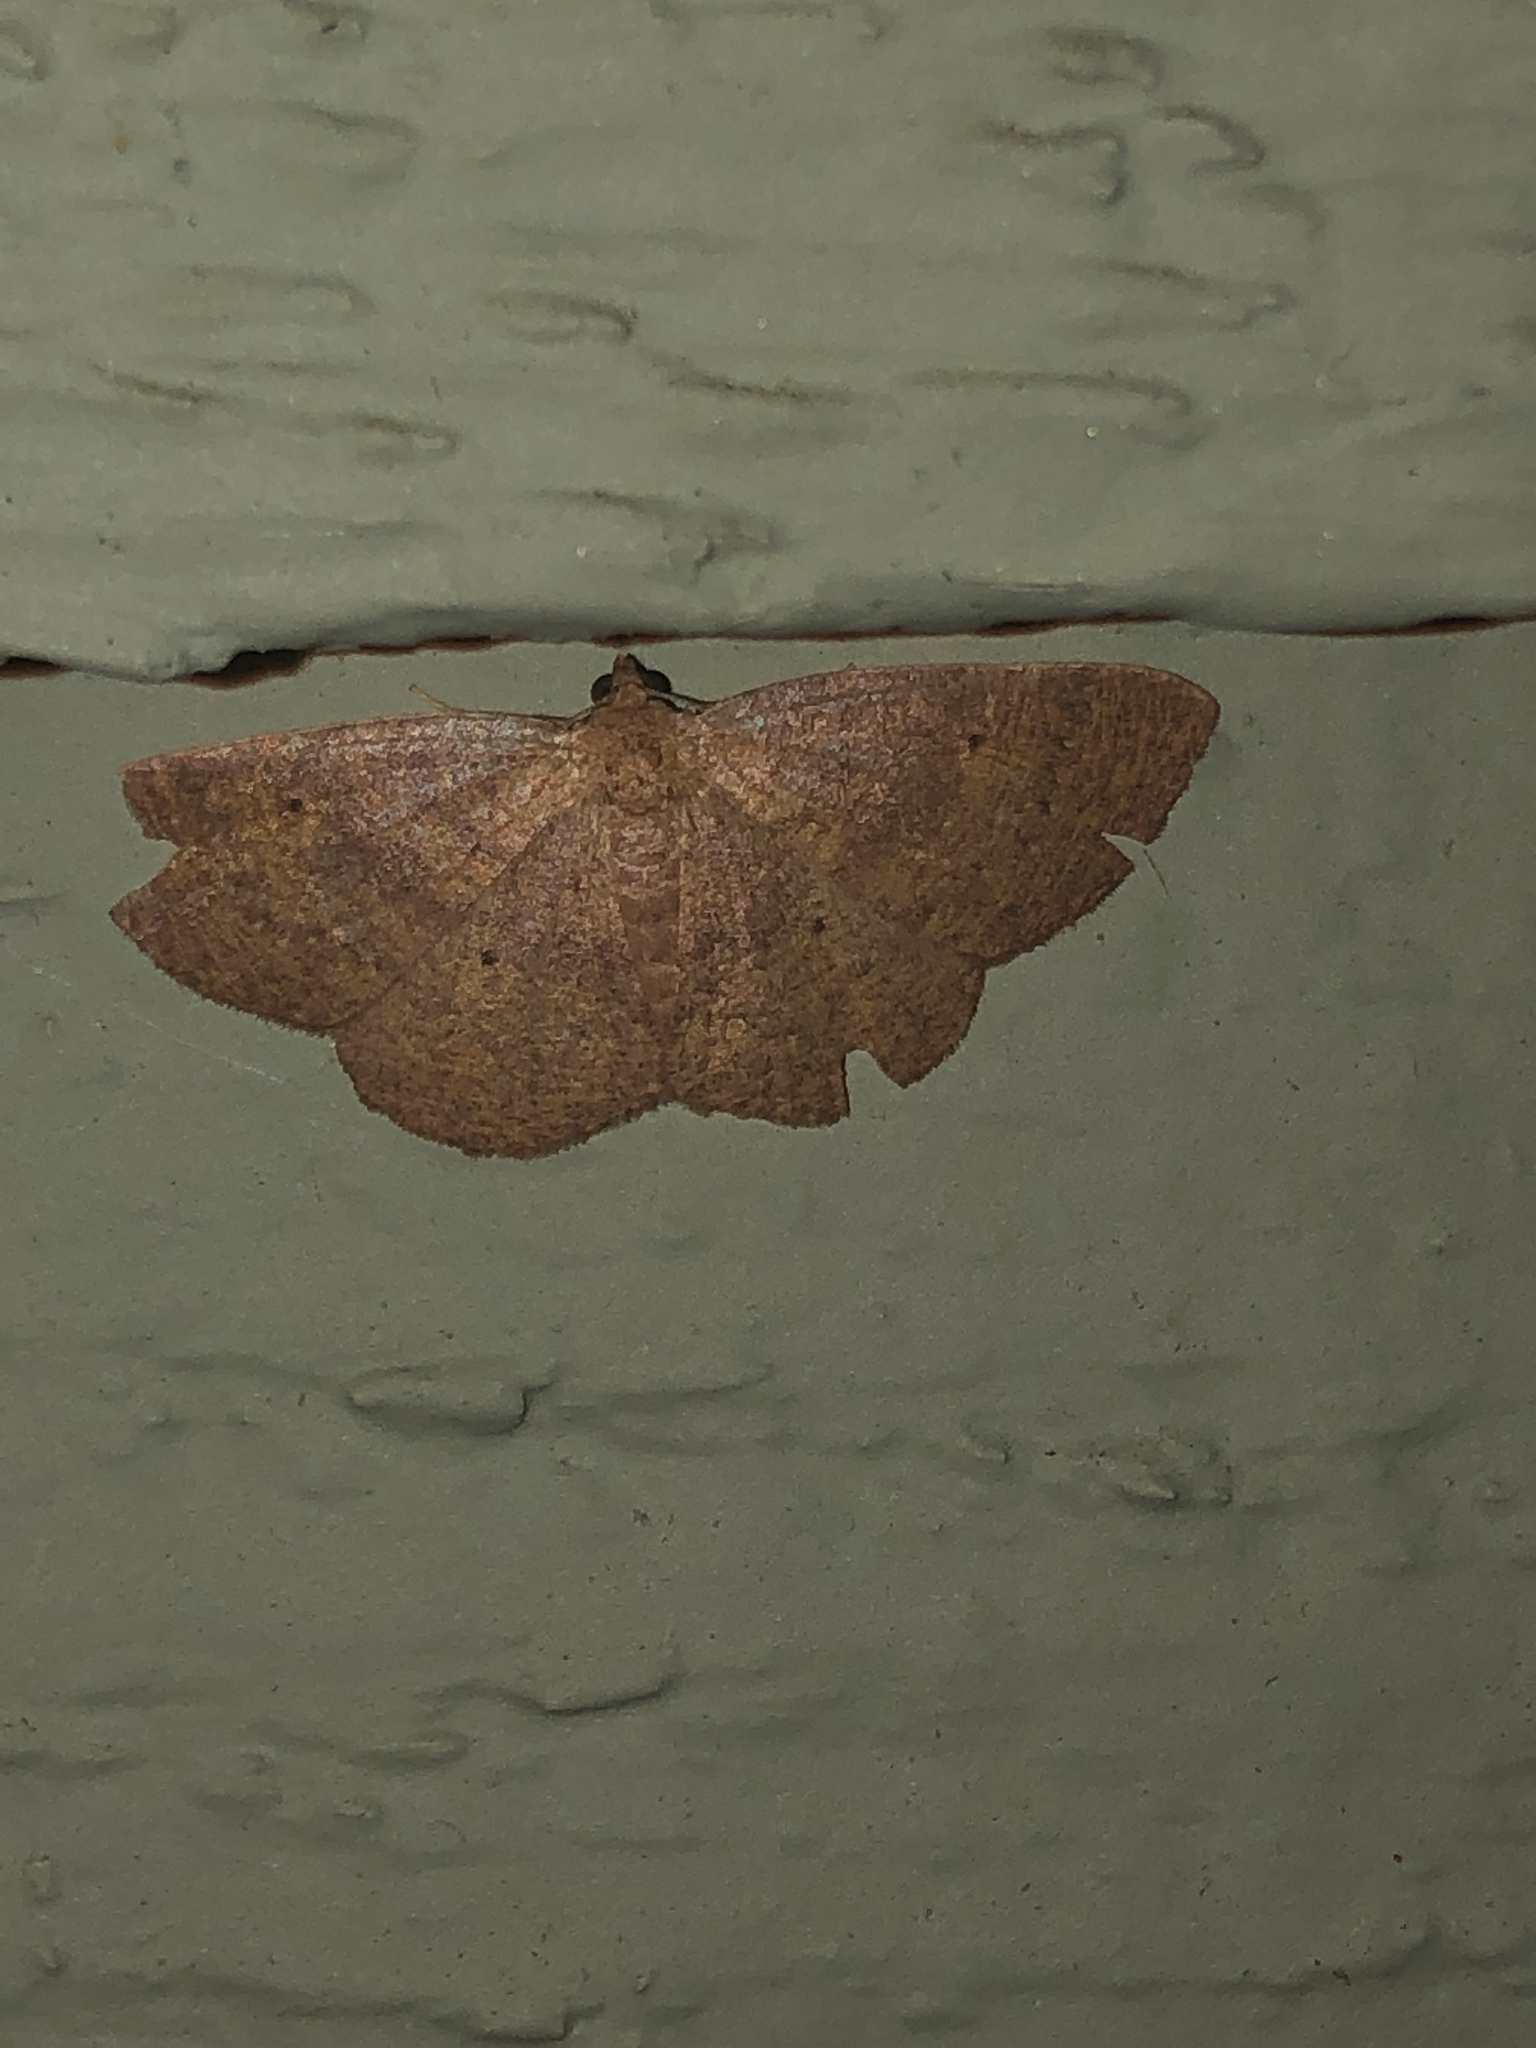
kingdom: Animalia
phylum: Arthropoda
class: Insecta
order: Lepidoptera
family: Geometridae
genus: Ilexia
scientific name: Ilexia intractata
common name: Black-dotted ruddy moth
